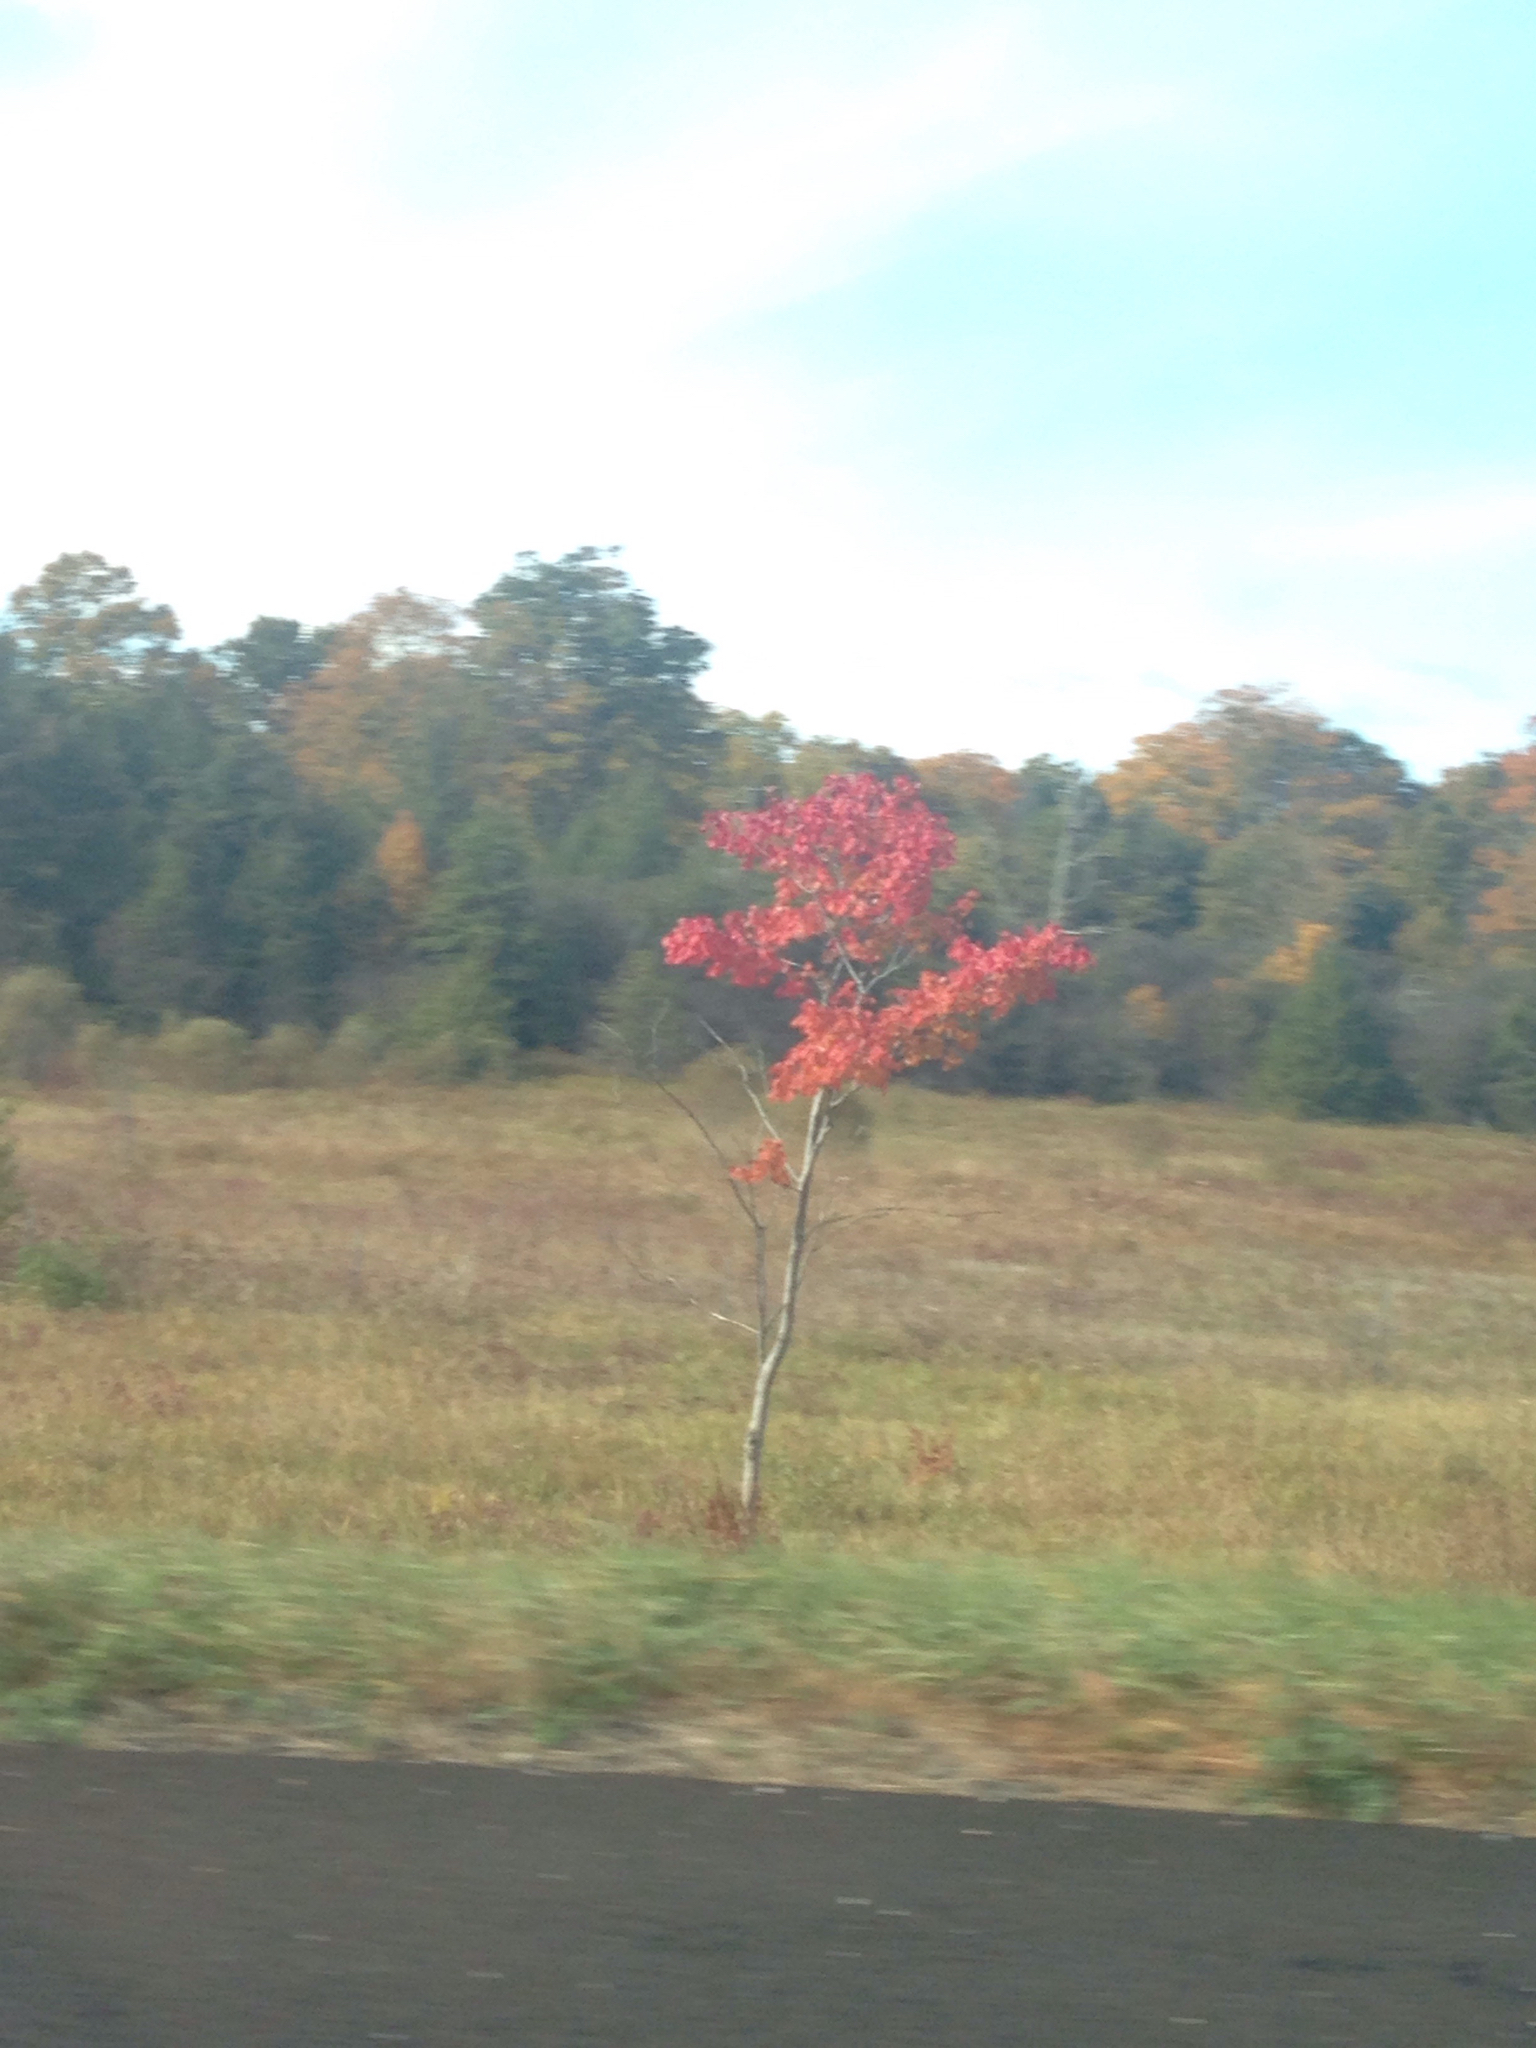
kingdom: Plantae
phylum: Tracheophyta
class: Magnoliopsida
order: Sapindales
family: Sapindaceae
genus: Acer
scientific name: Acer rubrum
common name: Red maple
